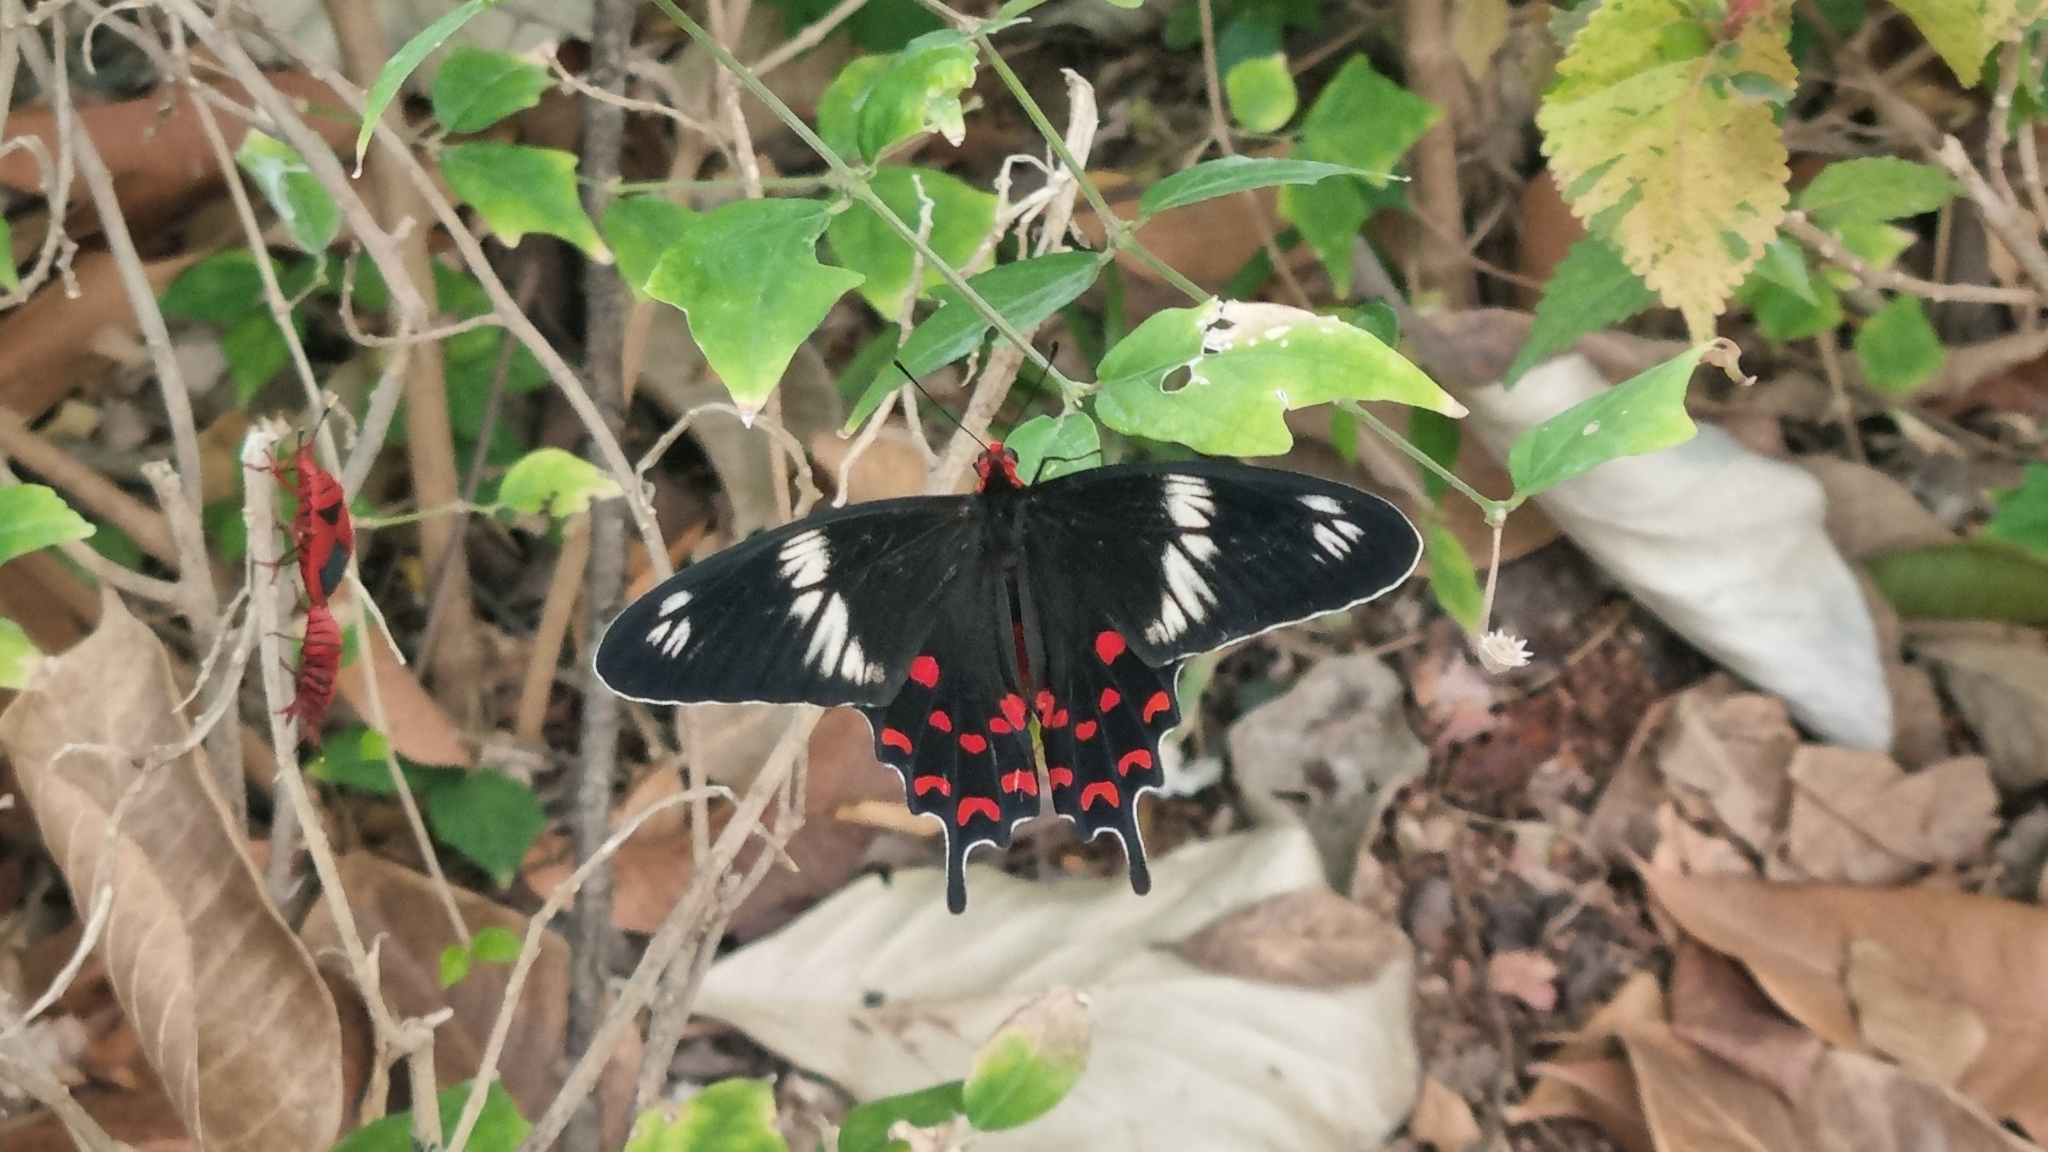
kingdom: Animalia
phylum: Arthropoda
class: Insecta
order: Lepidoptera
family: Papilionidae
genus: Pachliopta
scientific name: Pachliopta hector
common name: Crimson rose
